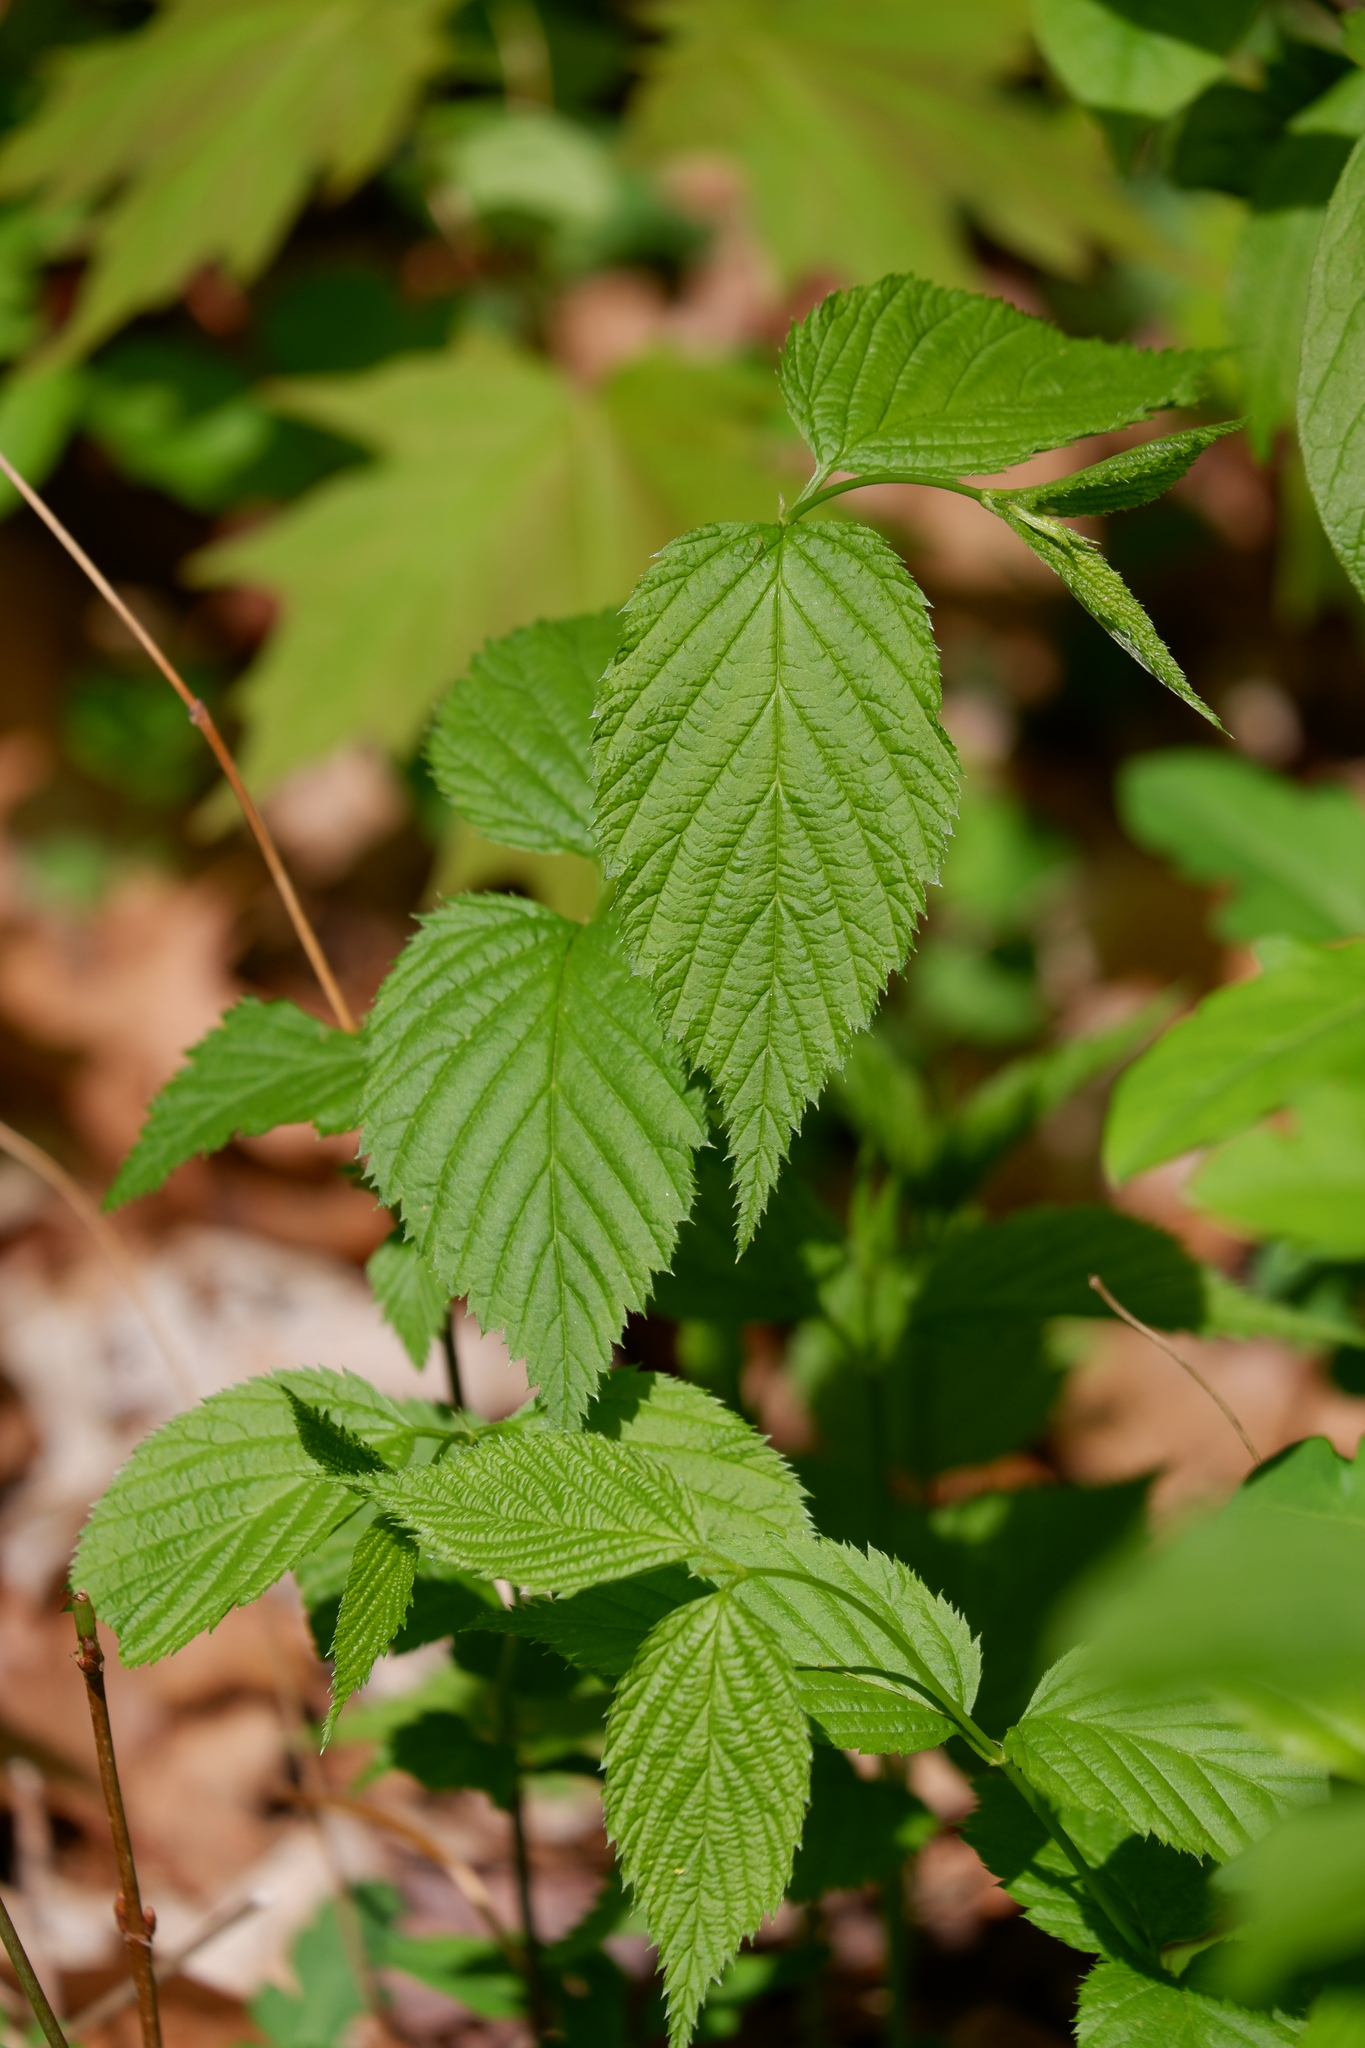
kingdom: Plantae
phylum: Tracheophyta
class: Magnoliopsida
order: Rosales
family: Rosaceae
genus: Rhodotypos
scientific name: Rhodotypos scandens
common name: Jetbead
